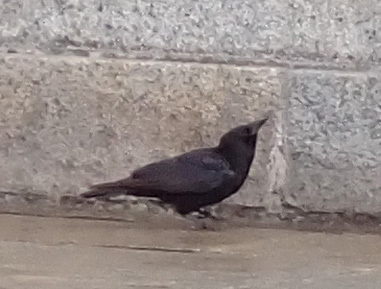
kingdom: Animalia
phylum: Chordata
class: Aves
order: Passeriformes
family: Corvidae
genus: Corvus
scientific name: Corvus corone
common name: Carrion crow
